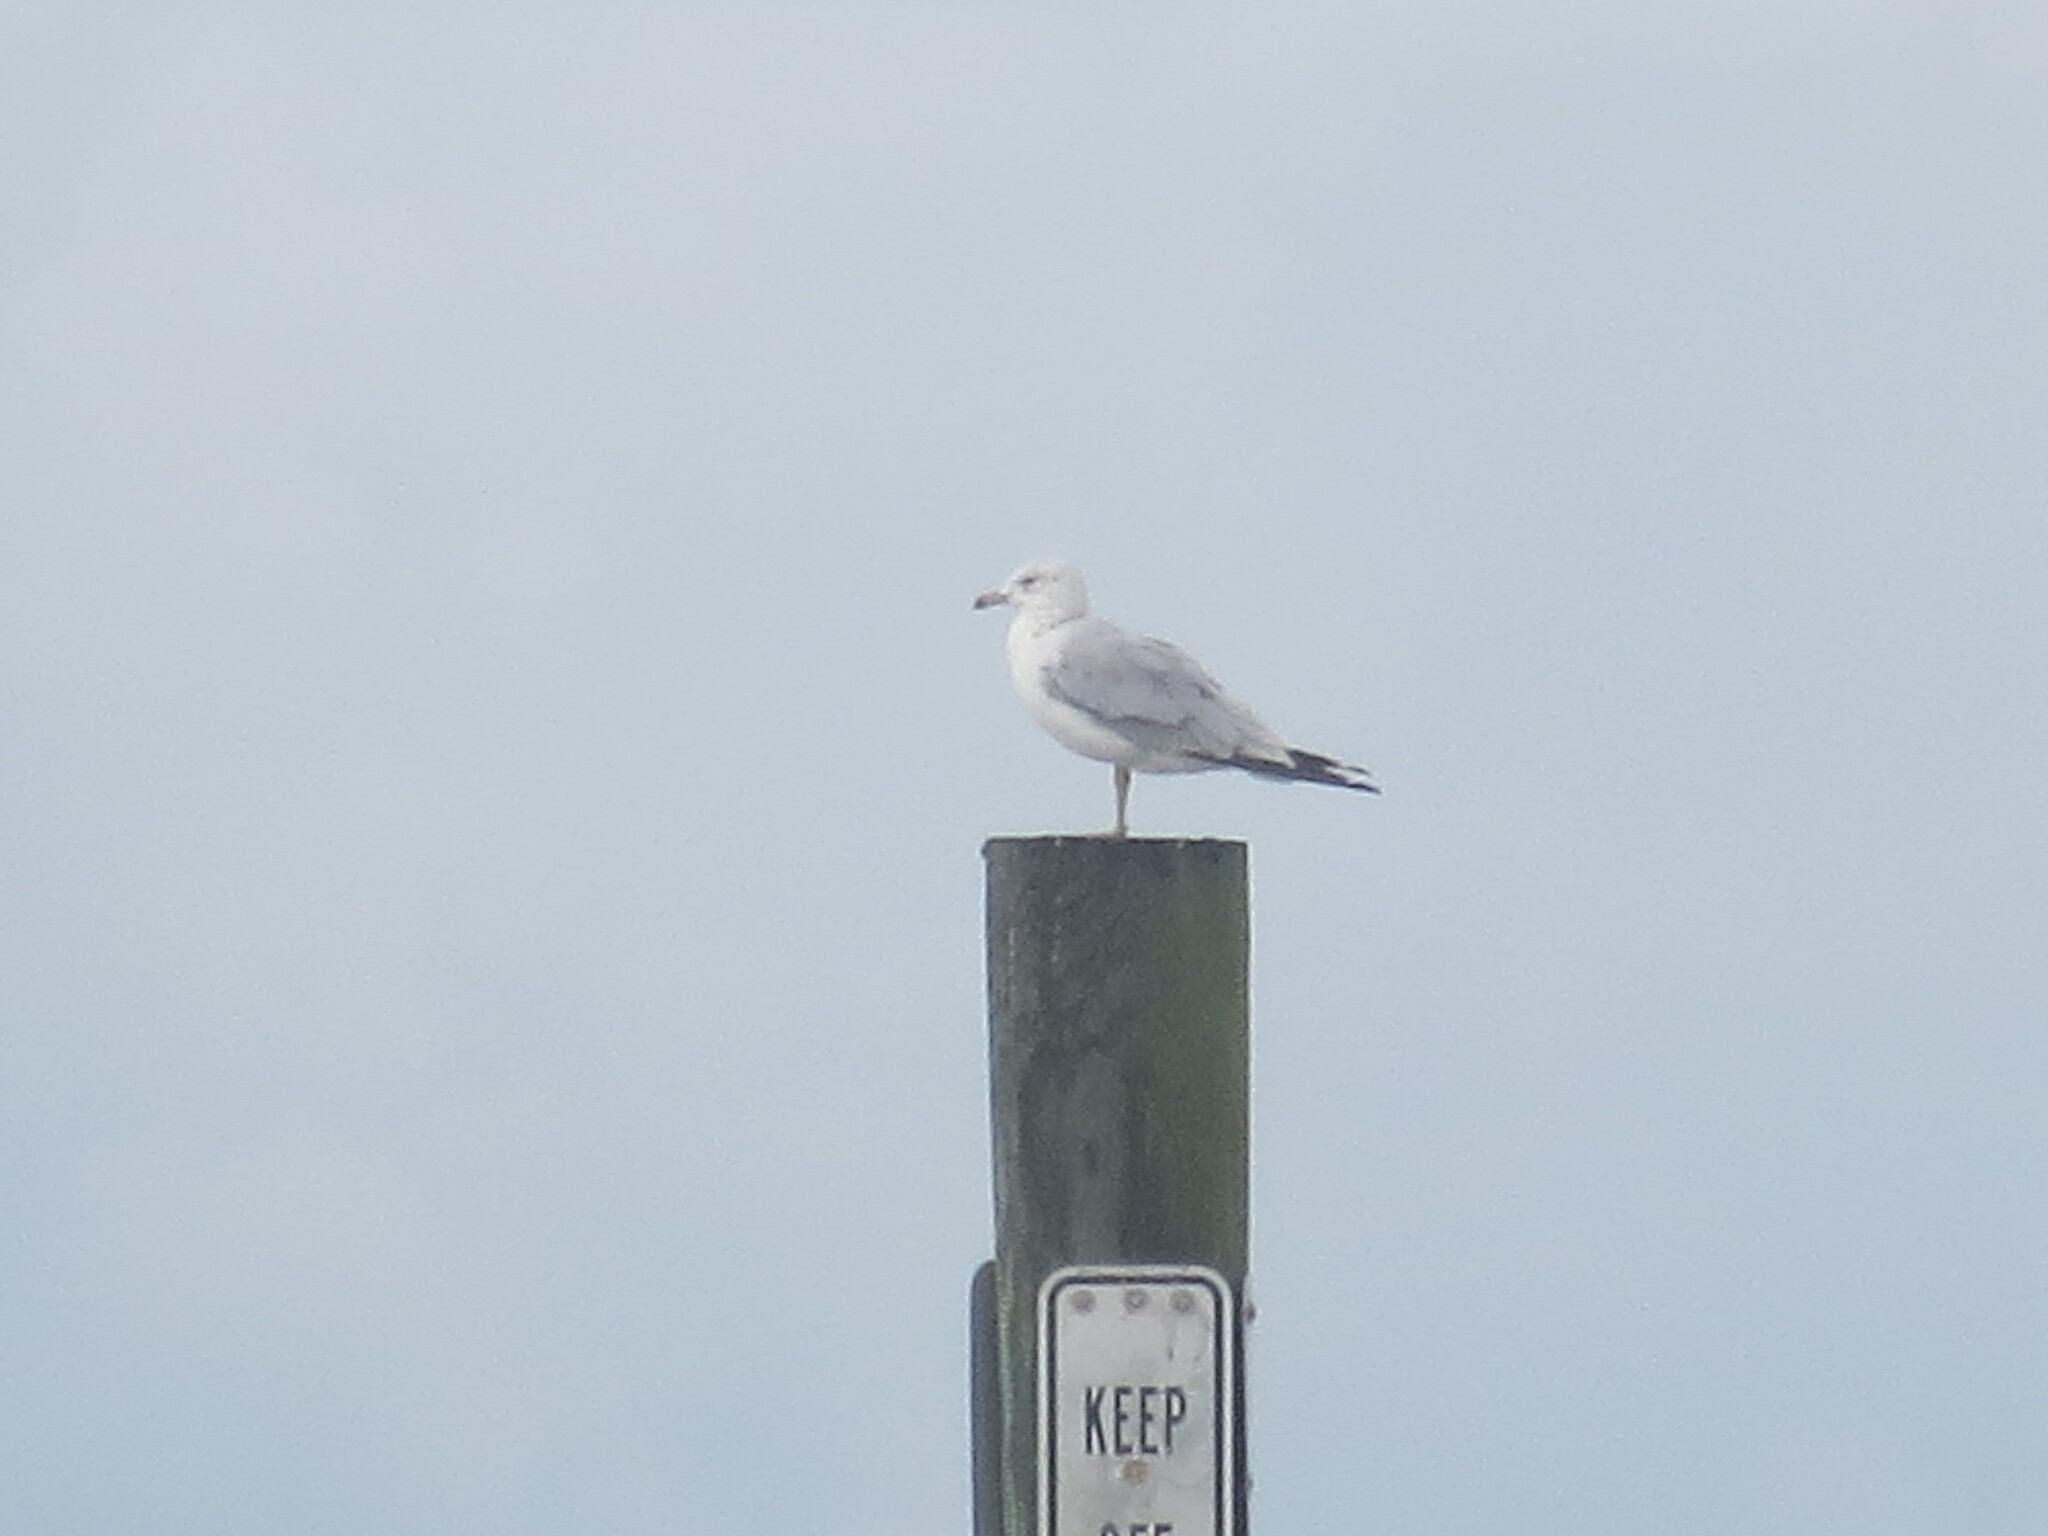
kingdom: Animalia
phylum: Chordata
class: Aves
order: Charadriiformes
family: Laridae
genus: Larus
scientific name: Larus delawarensis
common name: Ring-billed gull
